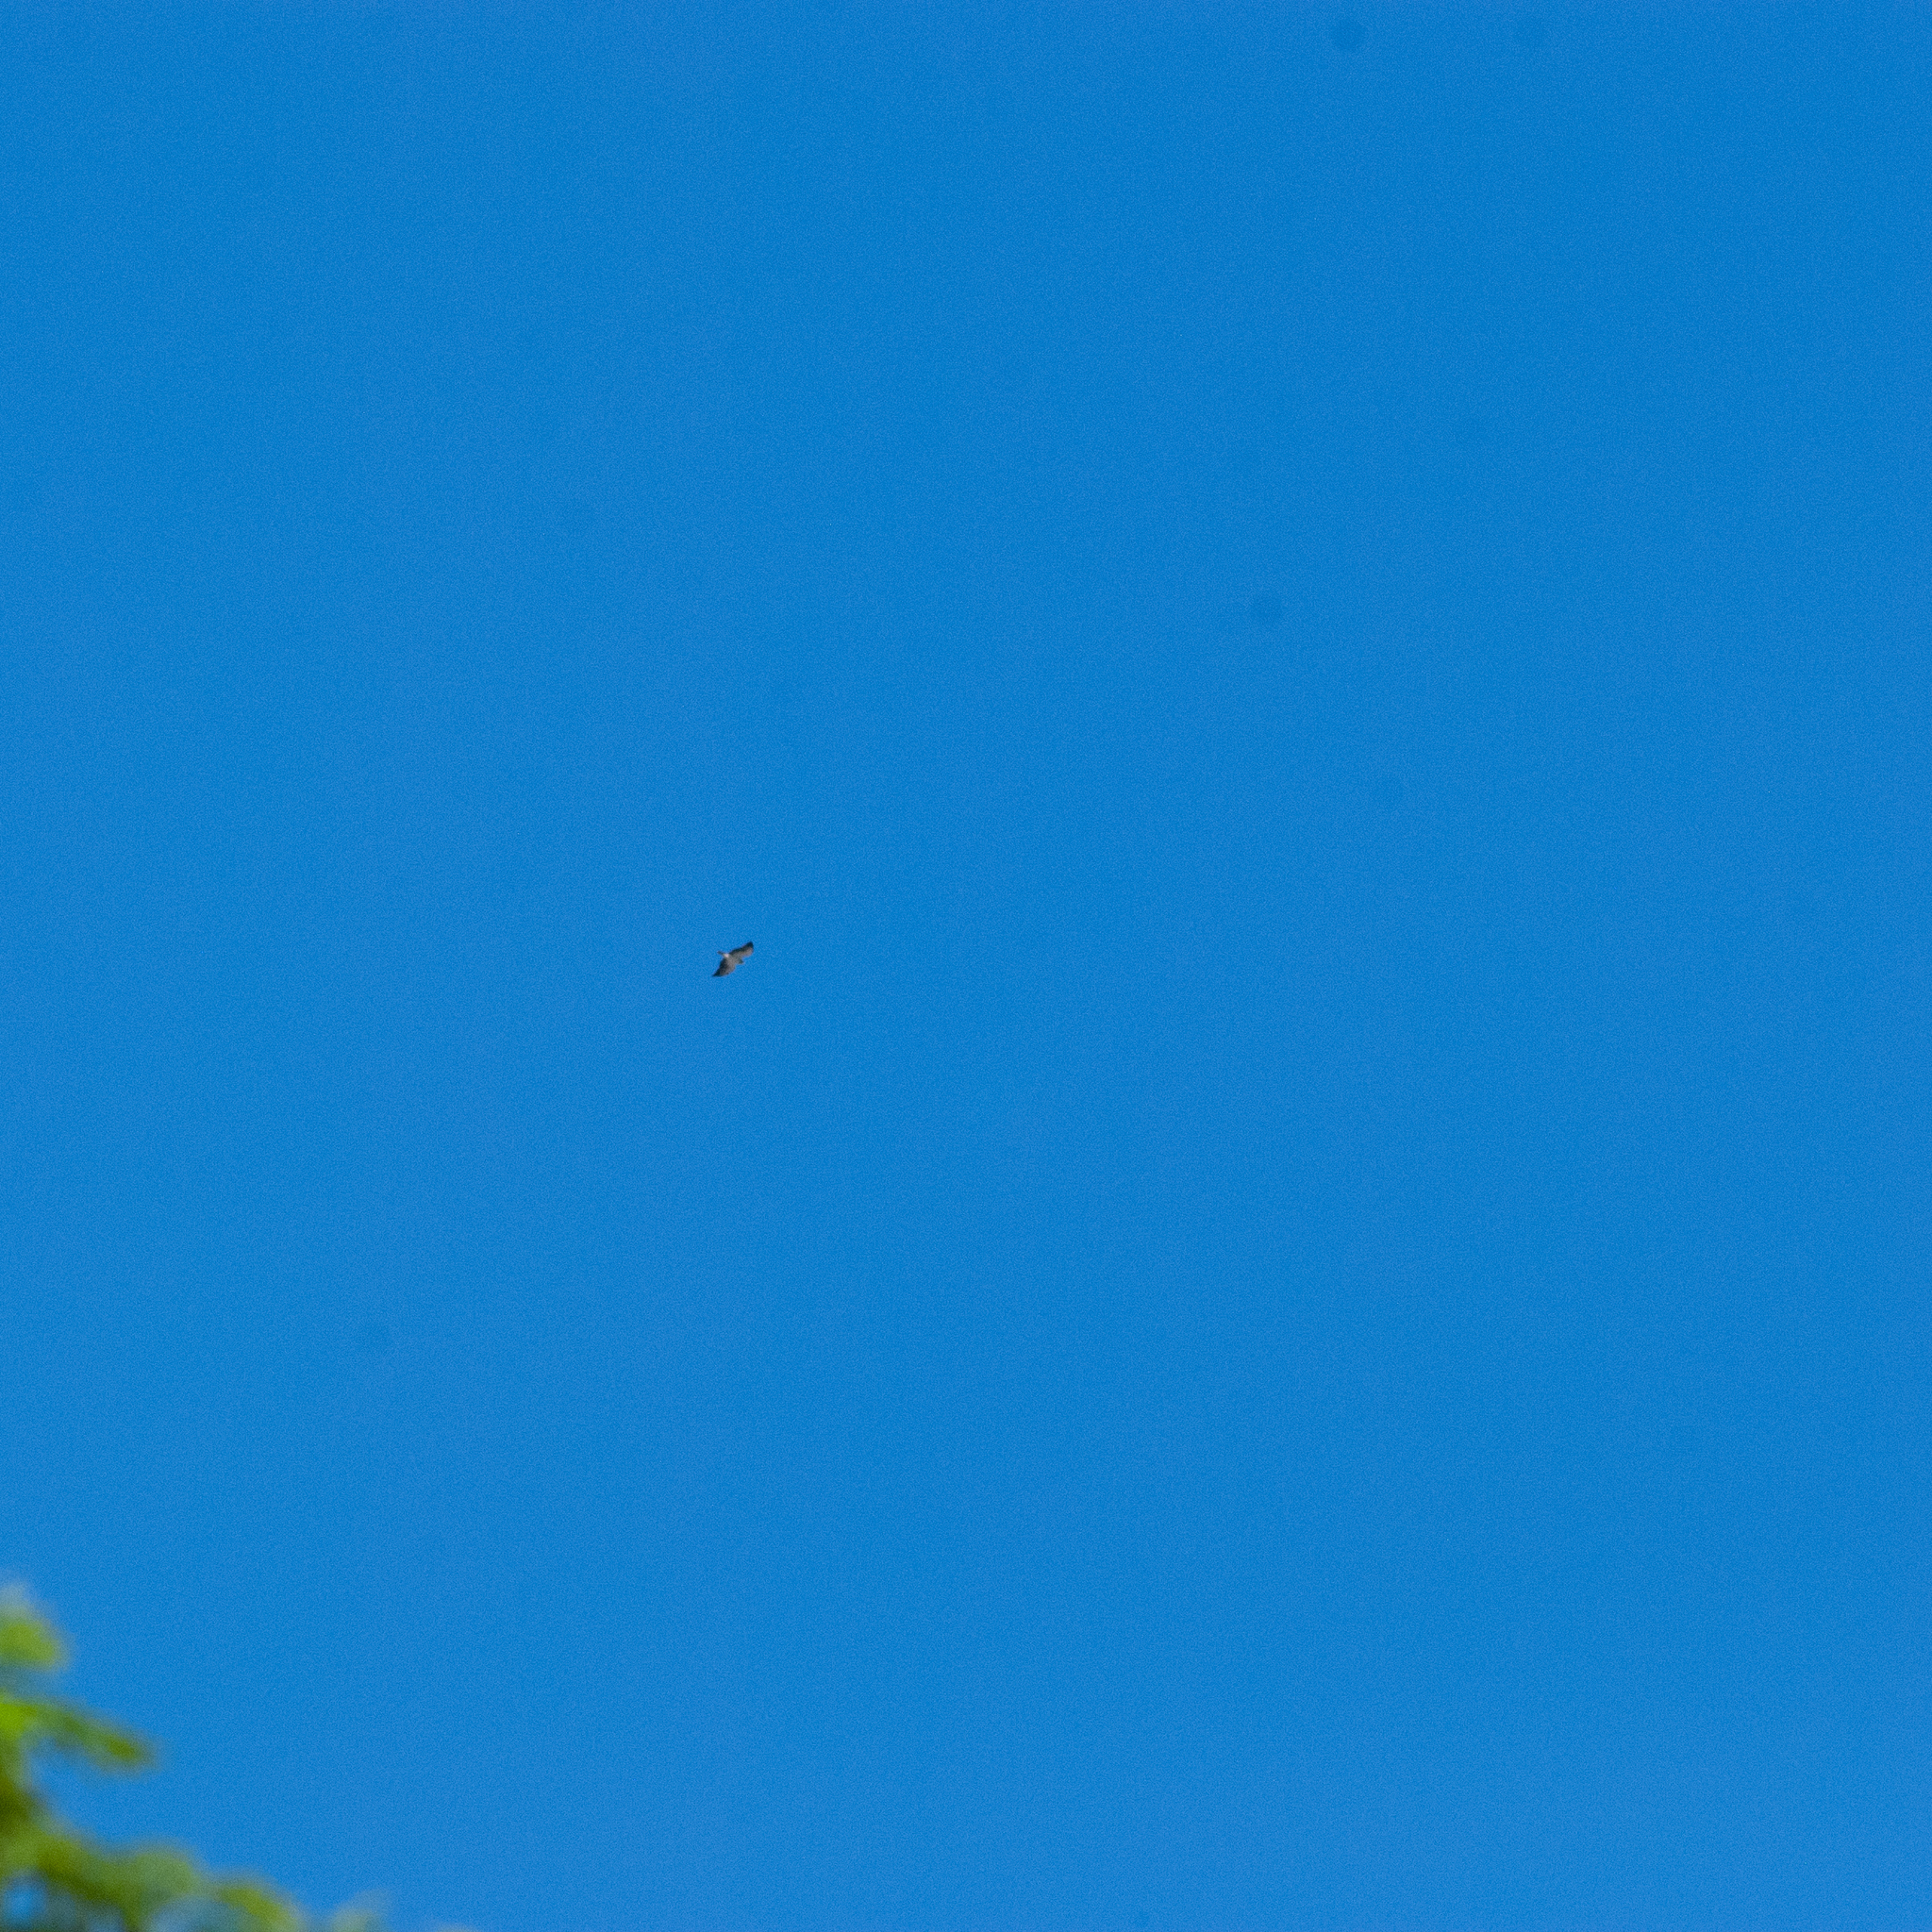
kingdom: Animalia
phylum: Chordata
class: Aves
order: Accipitriformes
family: Accipitridae
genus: Buteo
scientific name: Buteo brachyurus
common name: Short-tailed hawk
